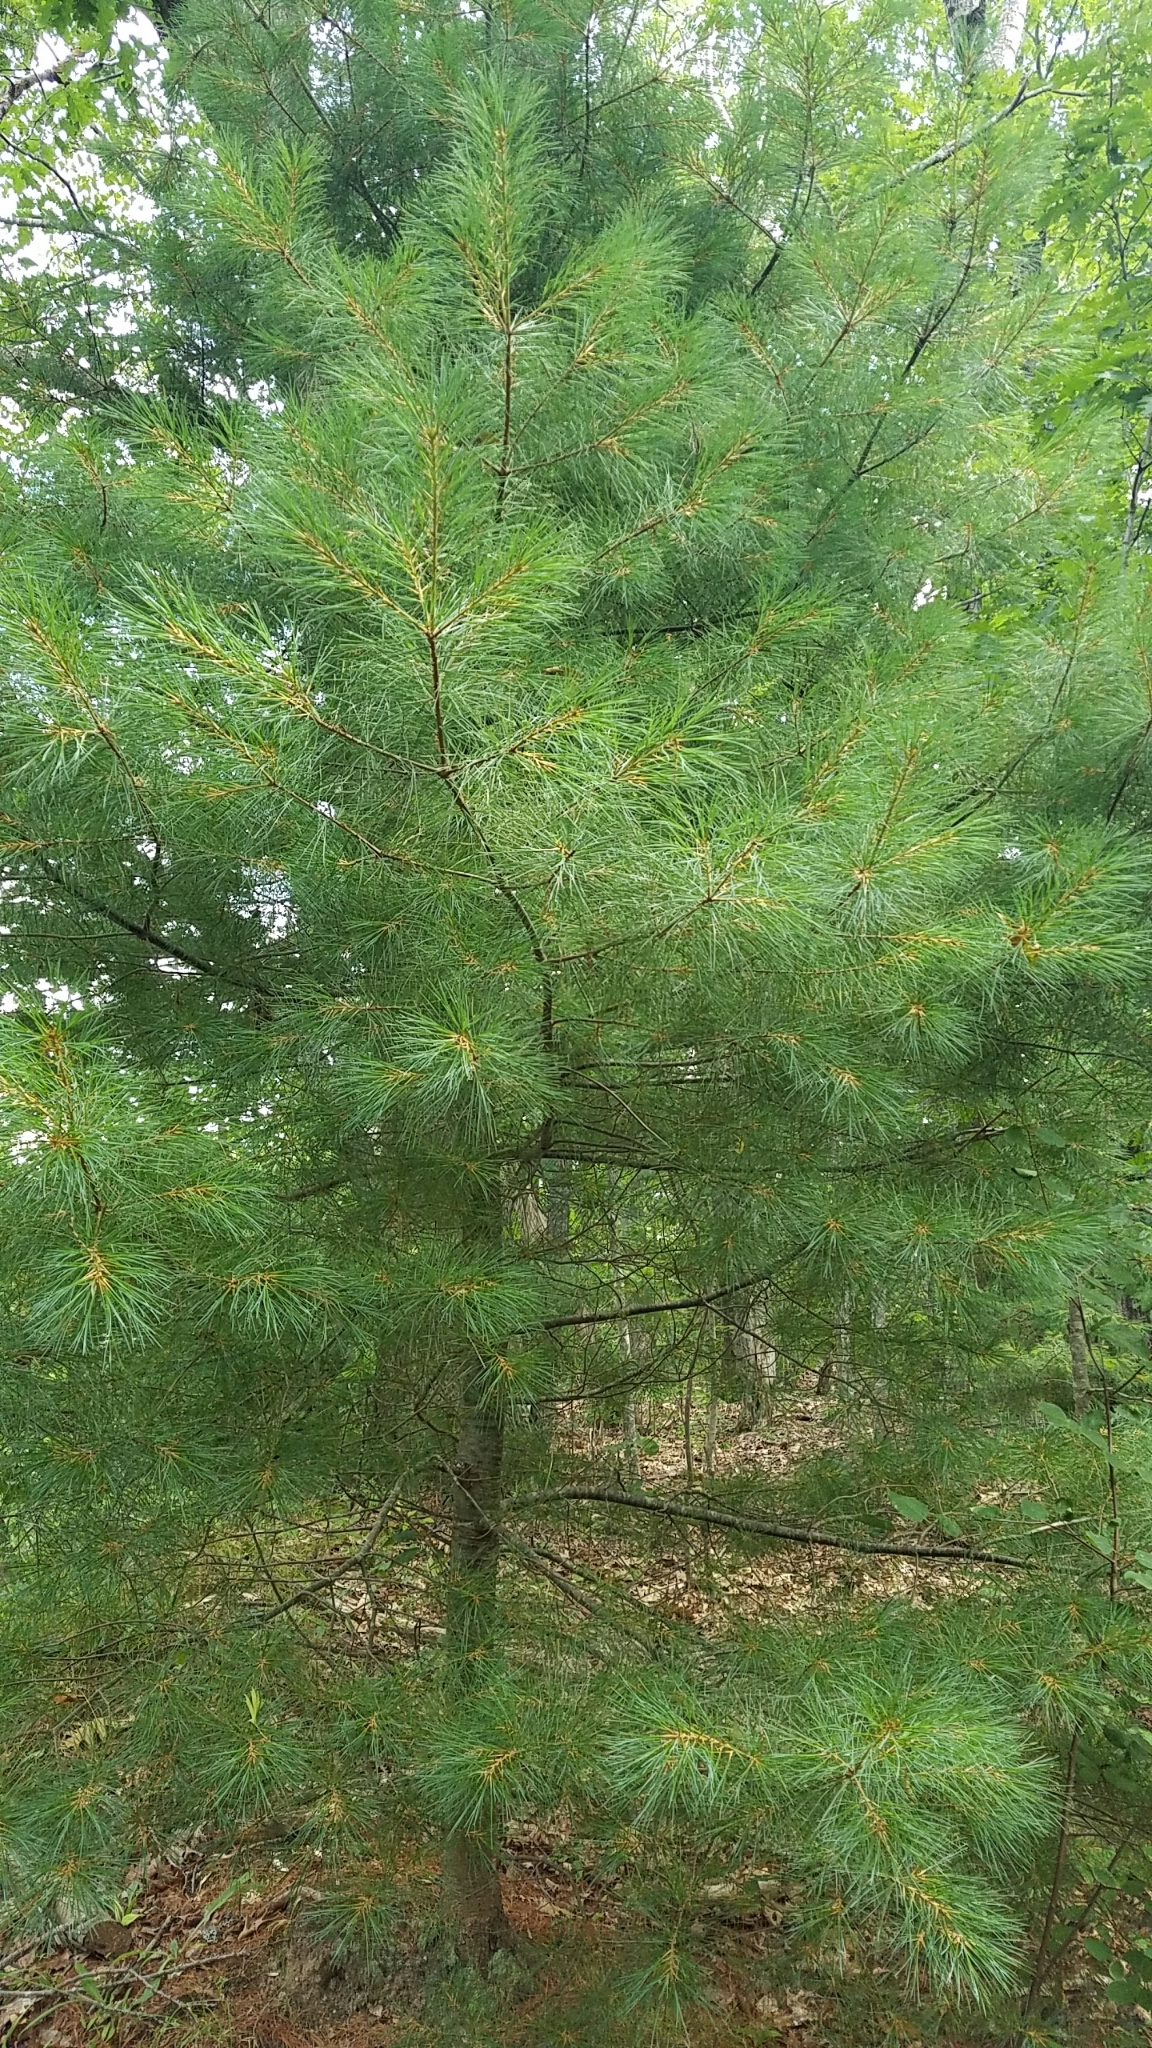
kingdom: Plantae
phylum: Tracheophyta
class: Pinopsida
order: Pinales
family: Pinaceae
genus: Pinus
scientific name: Pinus strobus
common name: Weymouth pine
